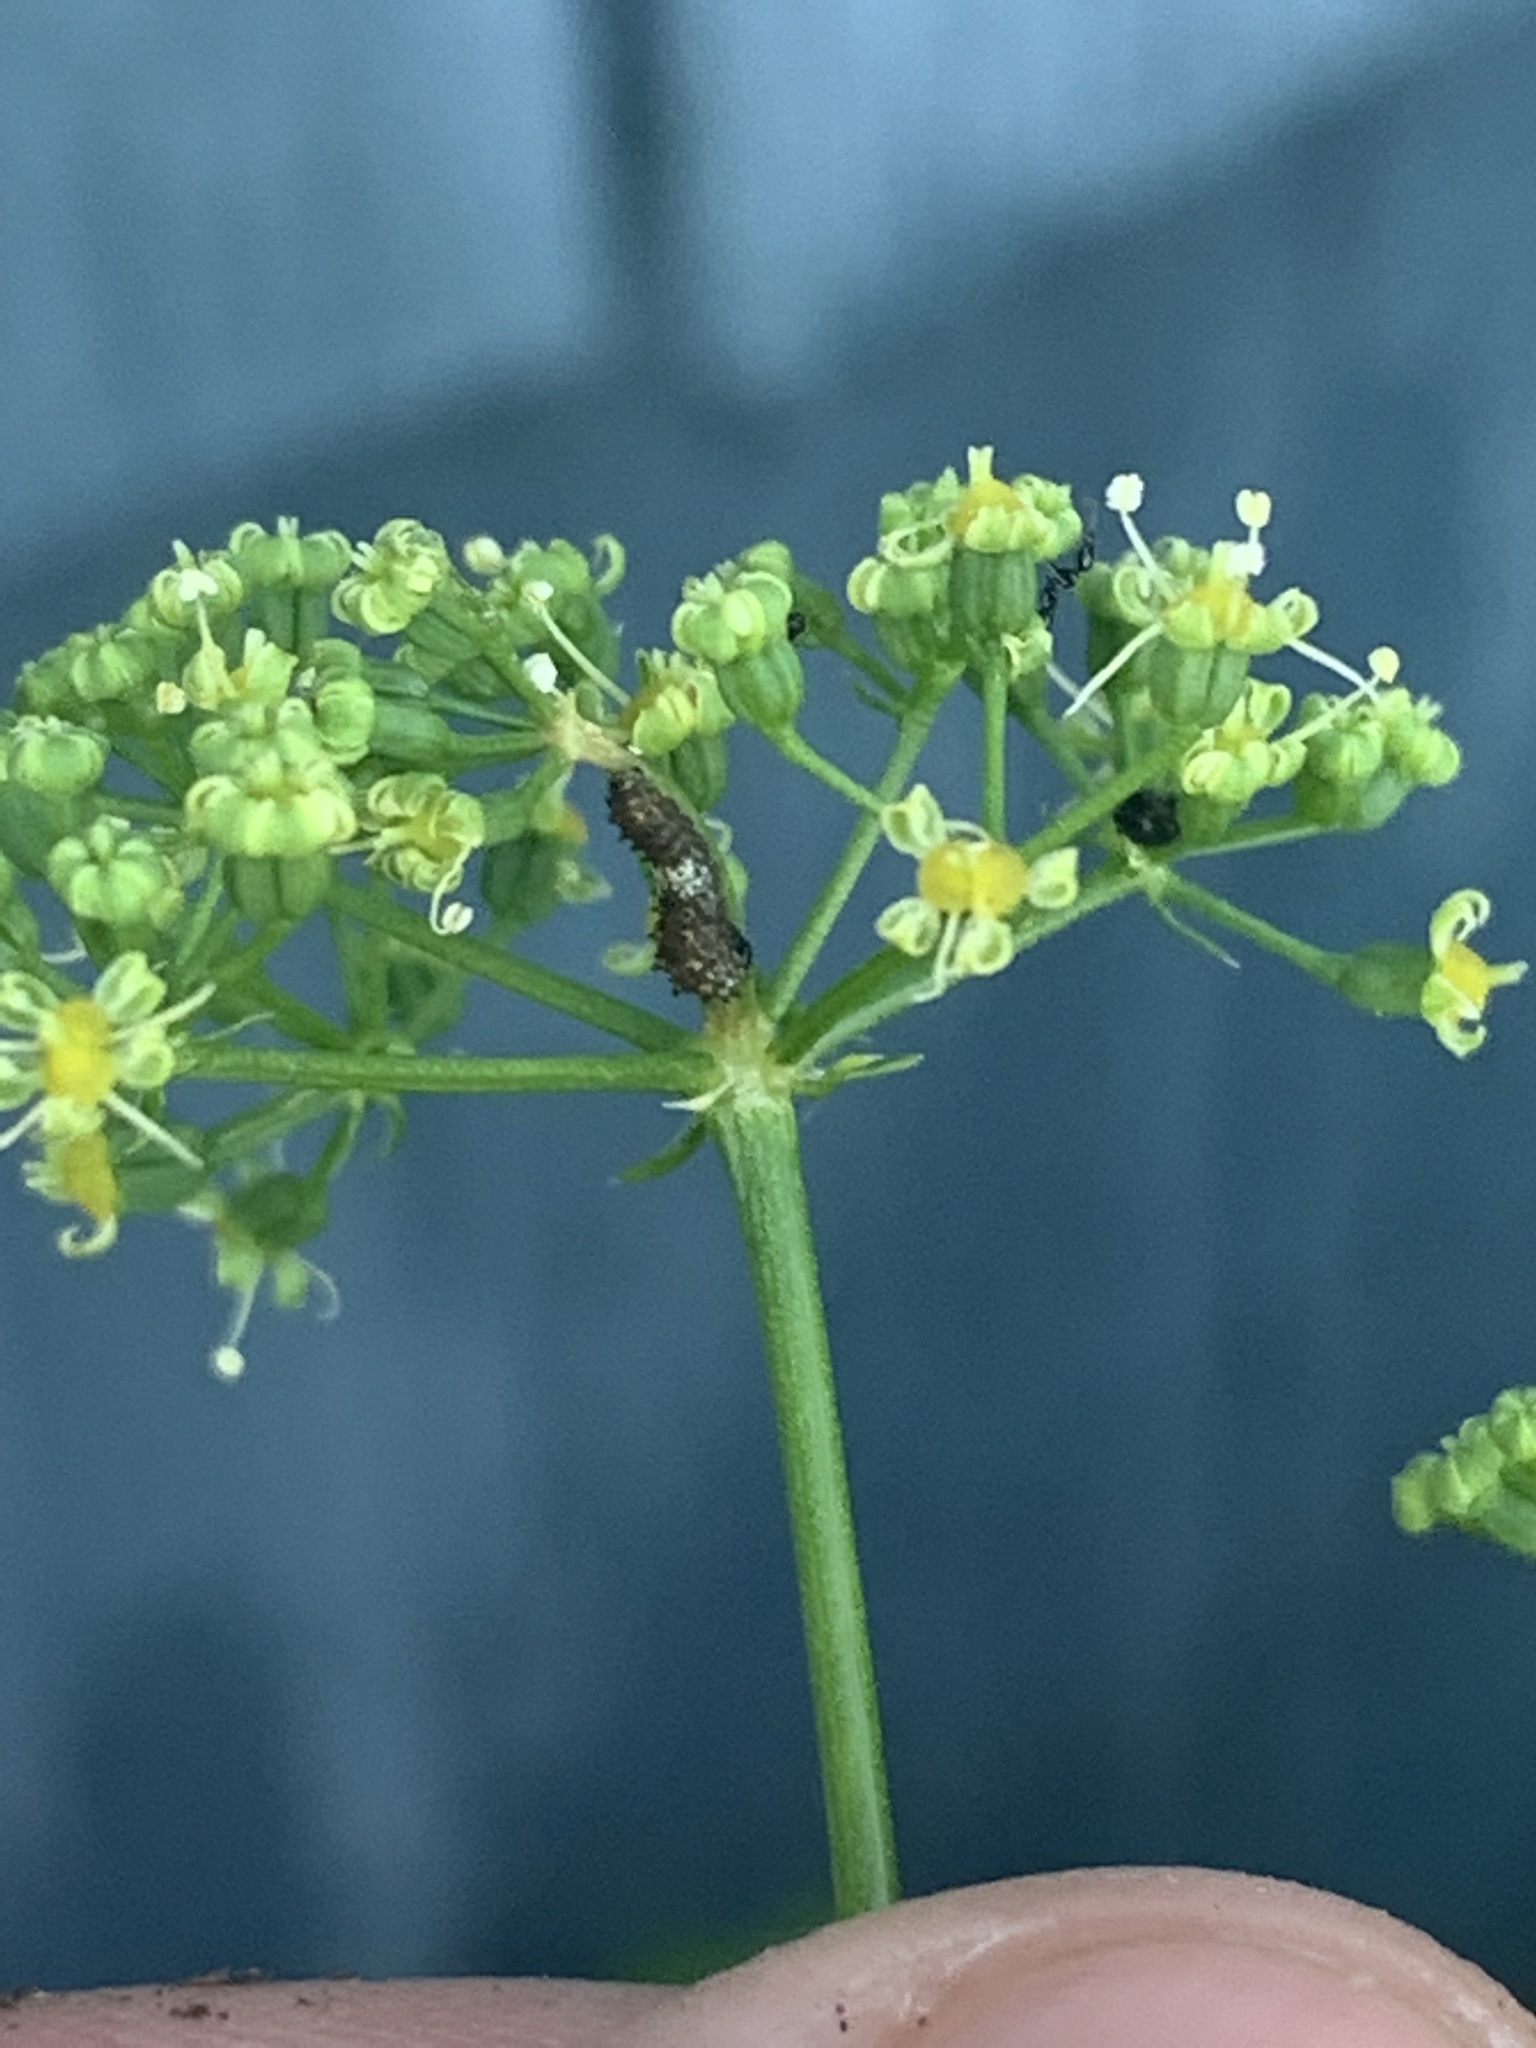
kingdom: Animalia
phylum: Arthropoda
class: Insecta
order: Lepidoptera
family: Papilionidae
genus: Papilio
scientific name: Papilio polyxenes
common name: Black swallowtail
